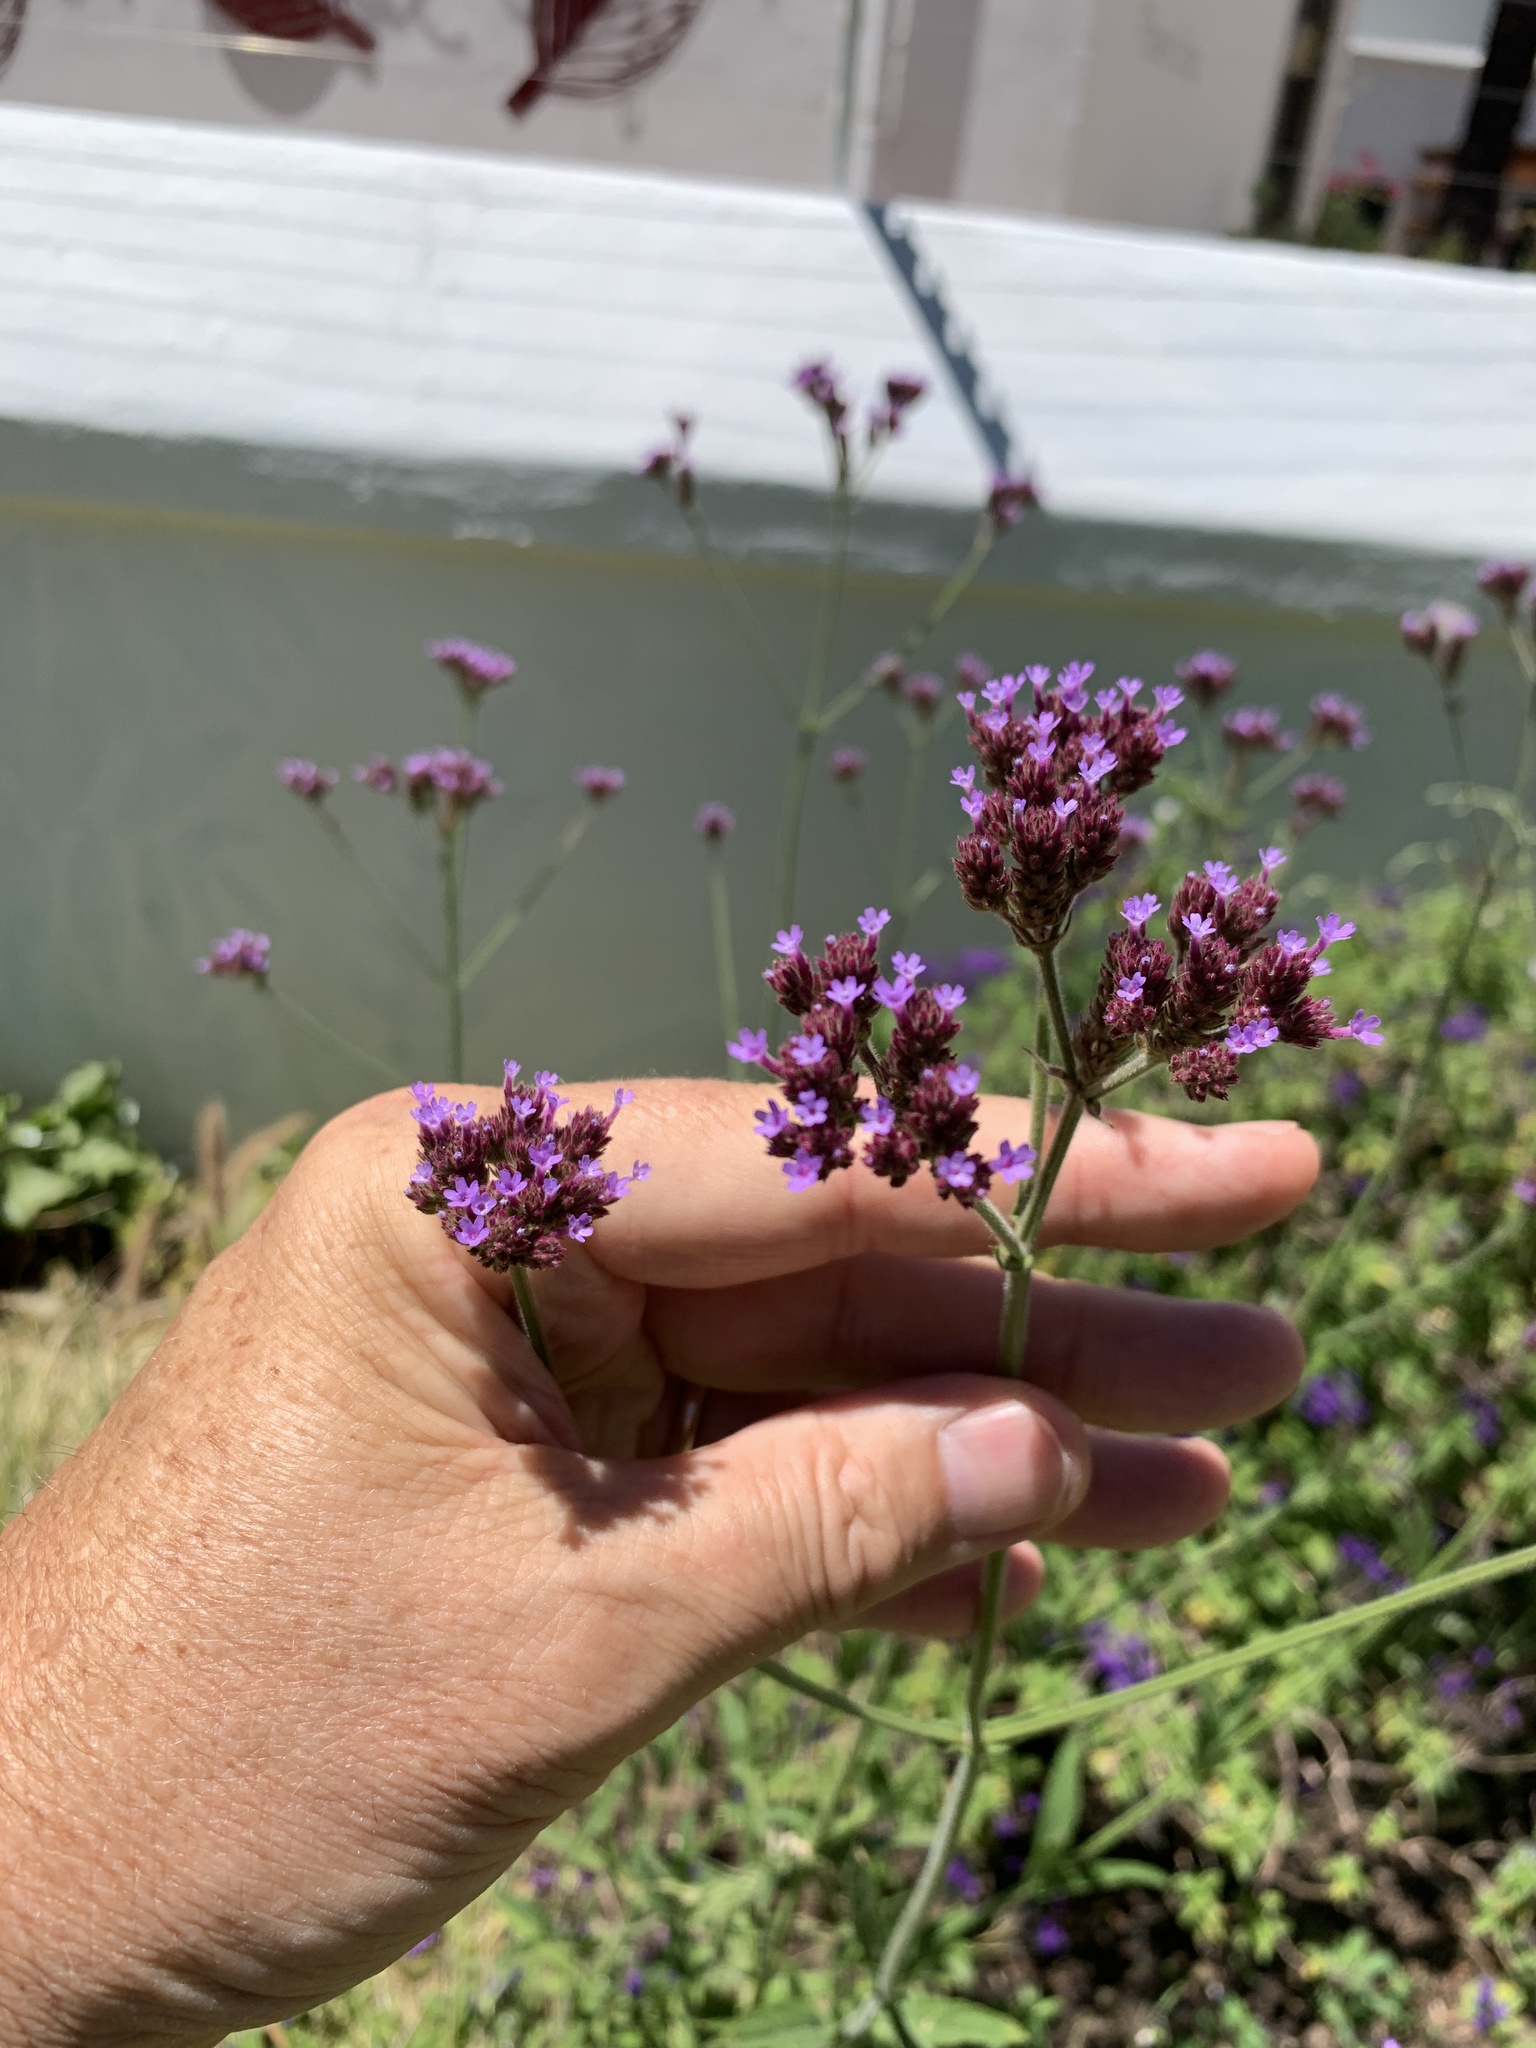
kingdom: Plantae
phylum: Tracheophyta
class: Magnoliopsida
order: Lamiales
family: Verbenaceae
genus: Verbena
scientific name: Verbena bonariensis
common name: Purpletop vervain
